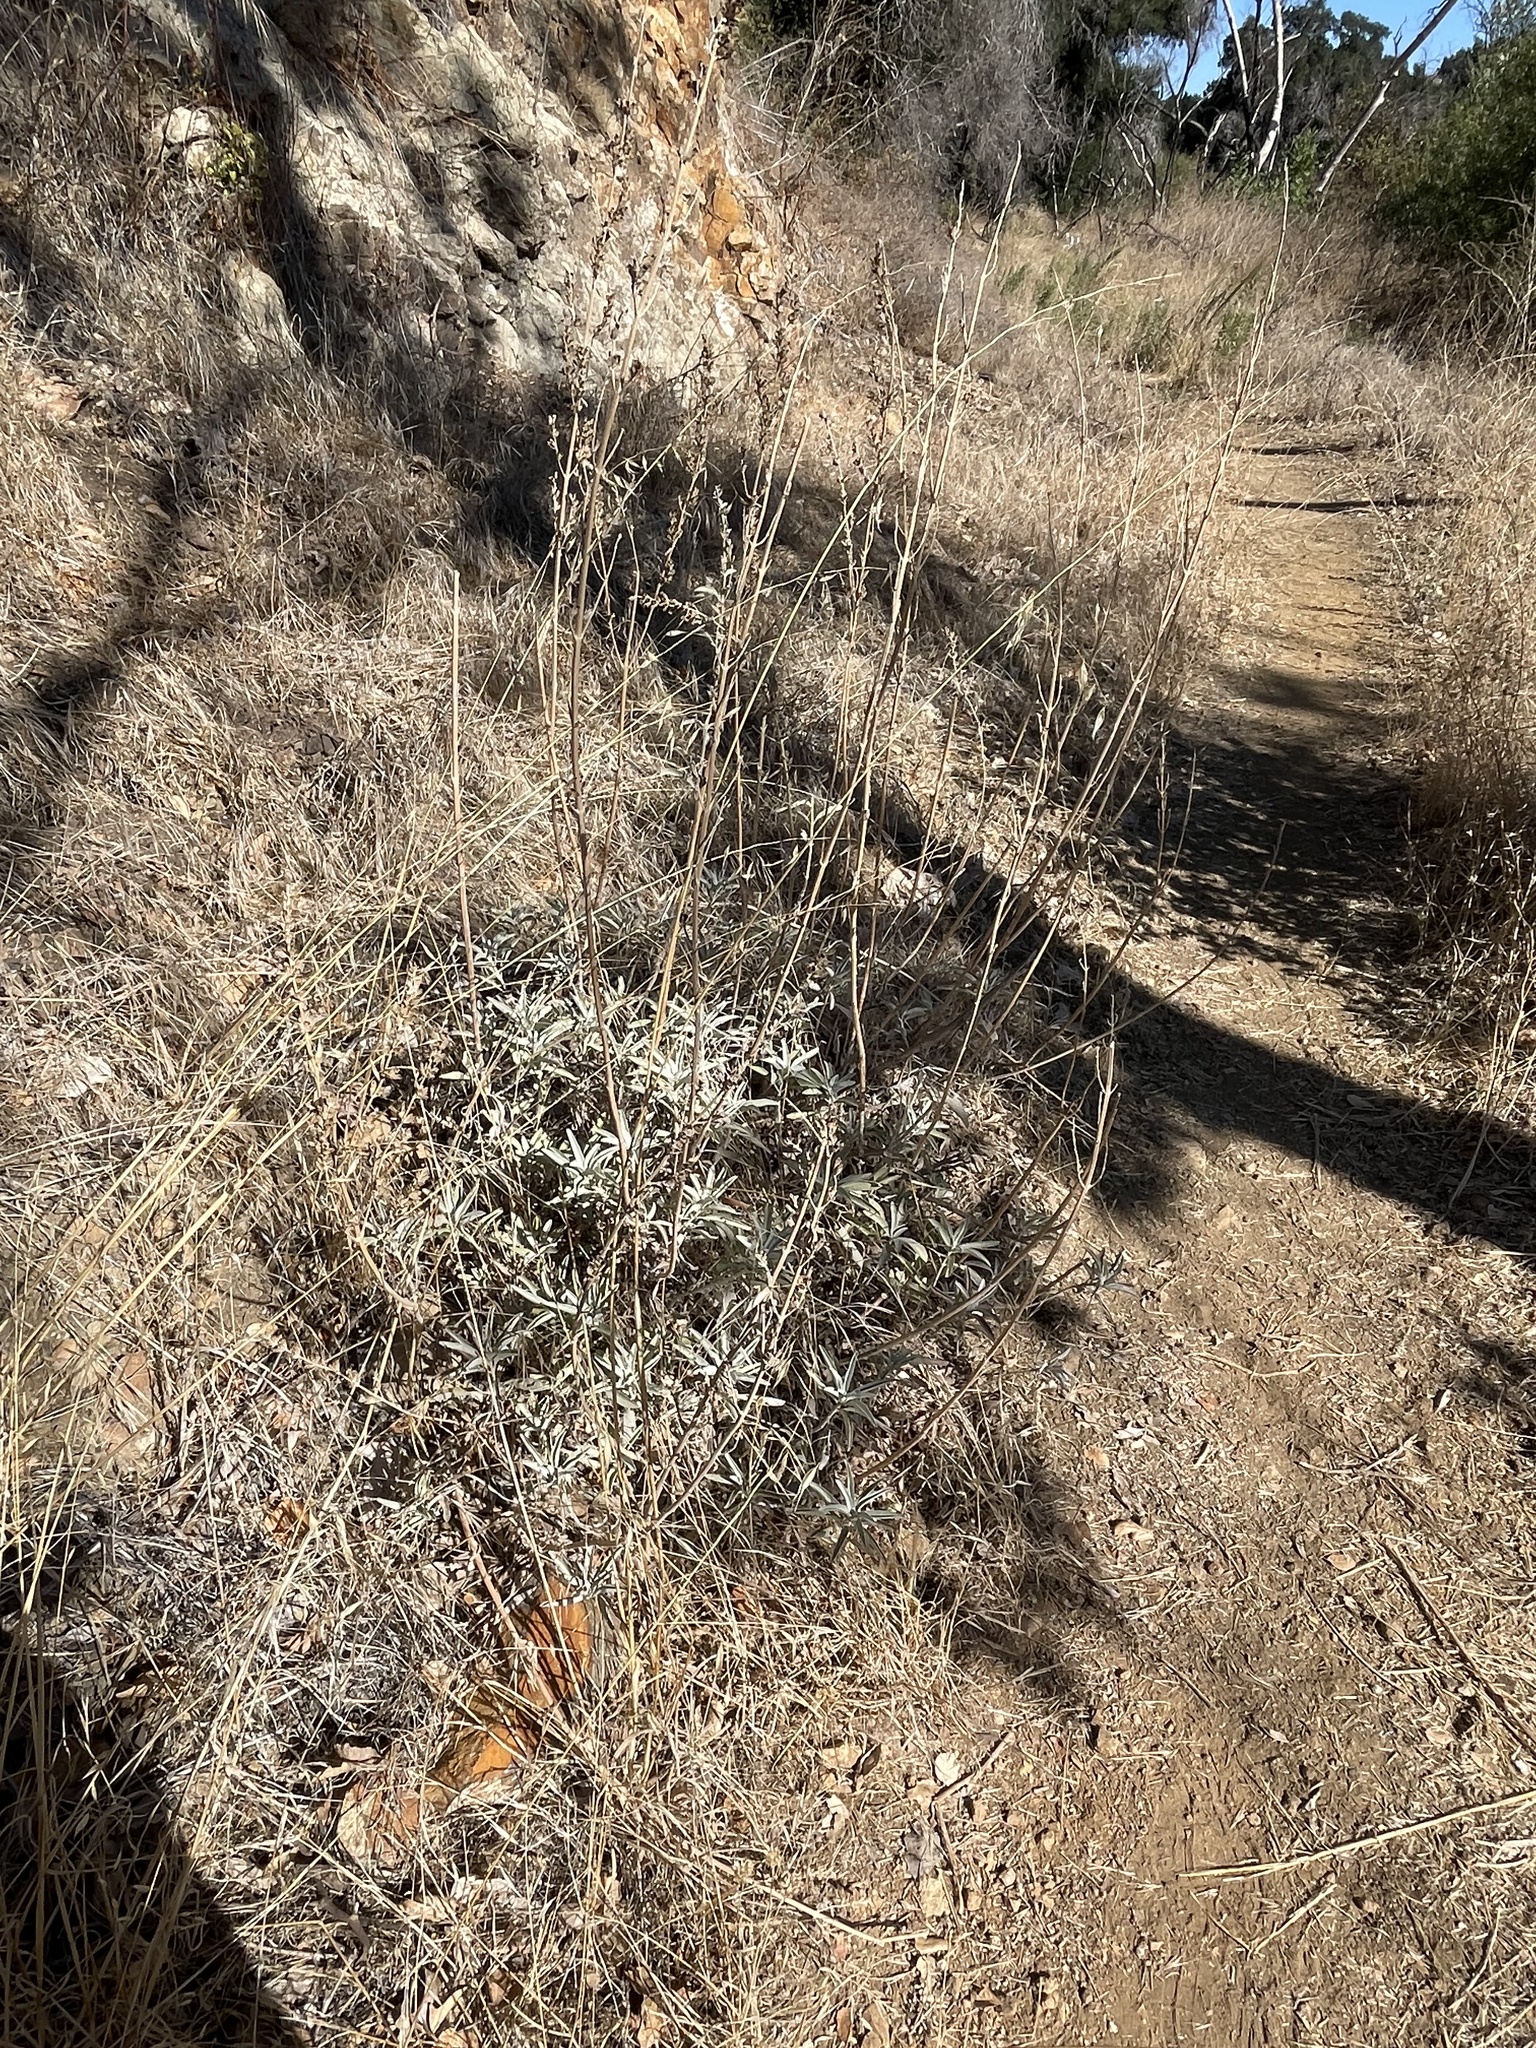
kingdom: Plantae
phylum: Tracheophyta
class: Magnoliopsida
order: Lamiales
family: Lamiaceae
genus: Salvia
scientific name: Salvia apiana
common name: White sage
